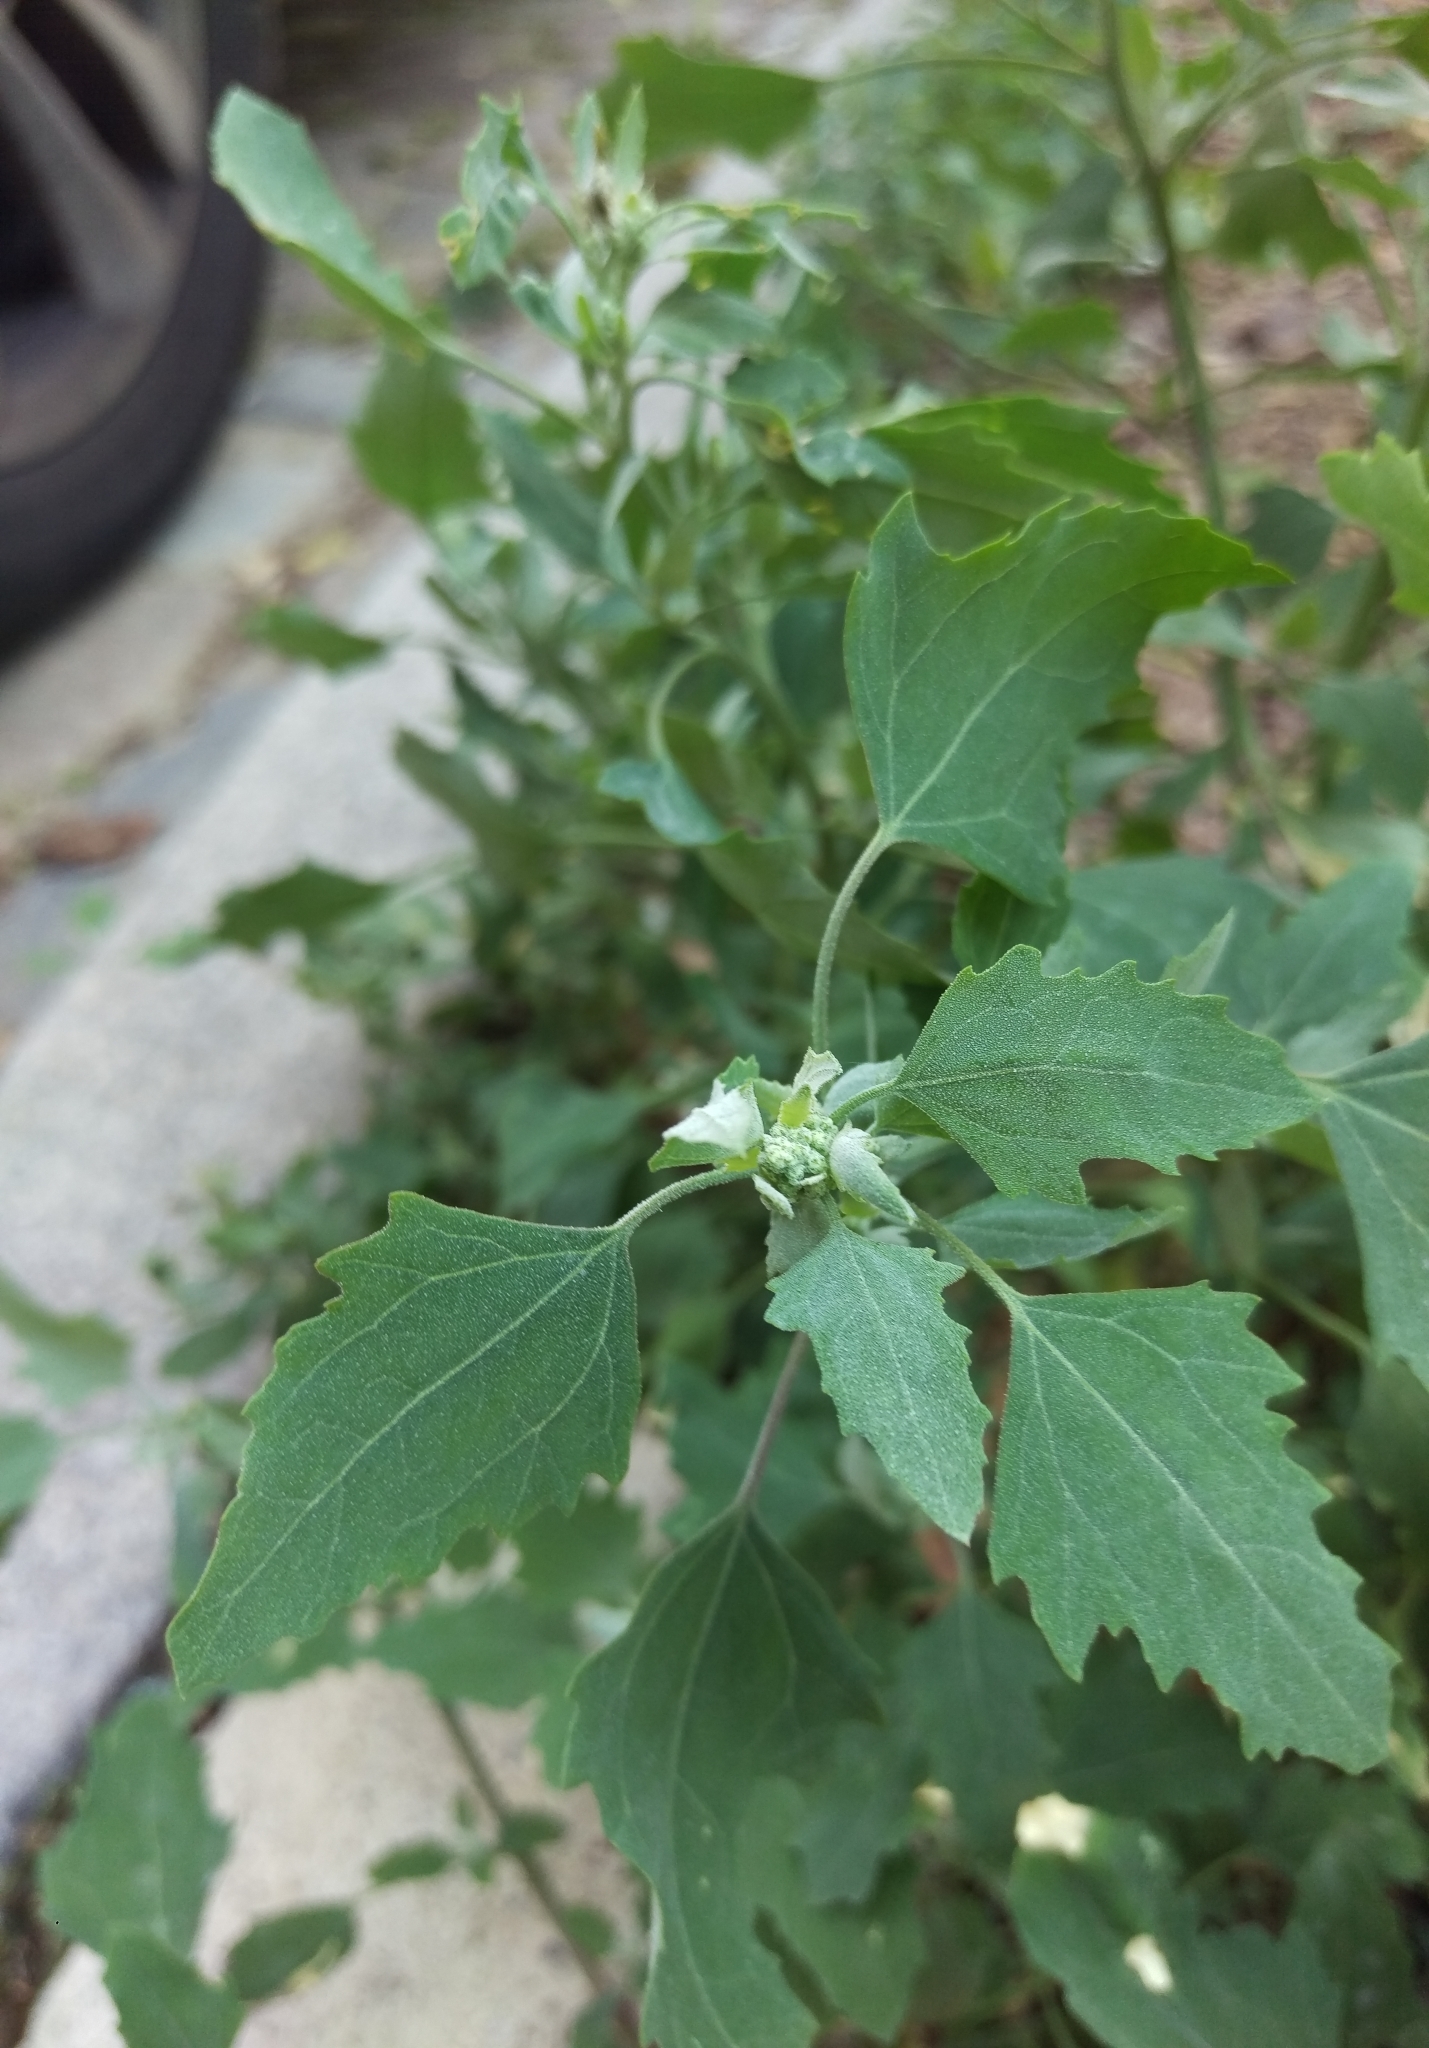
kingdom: Plantae
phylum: Tracheophyta
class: Magnoliopsida
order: Caryophyllales
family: Amaranthaceae
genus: Chenopodium
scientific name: Chenopodium album
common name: Fat-hen
